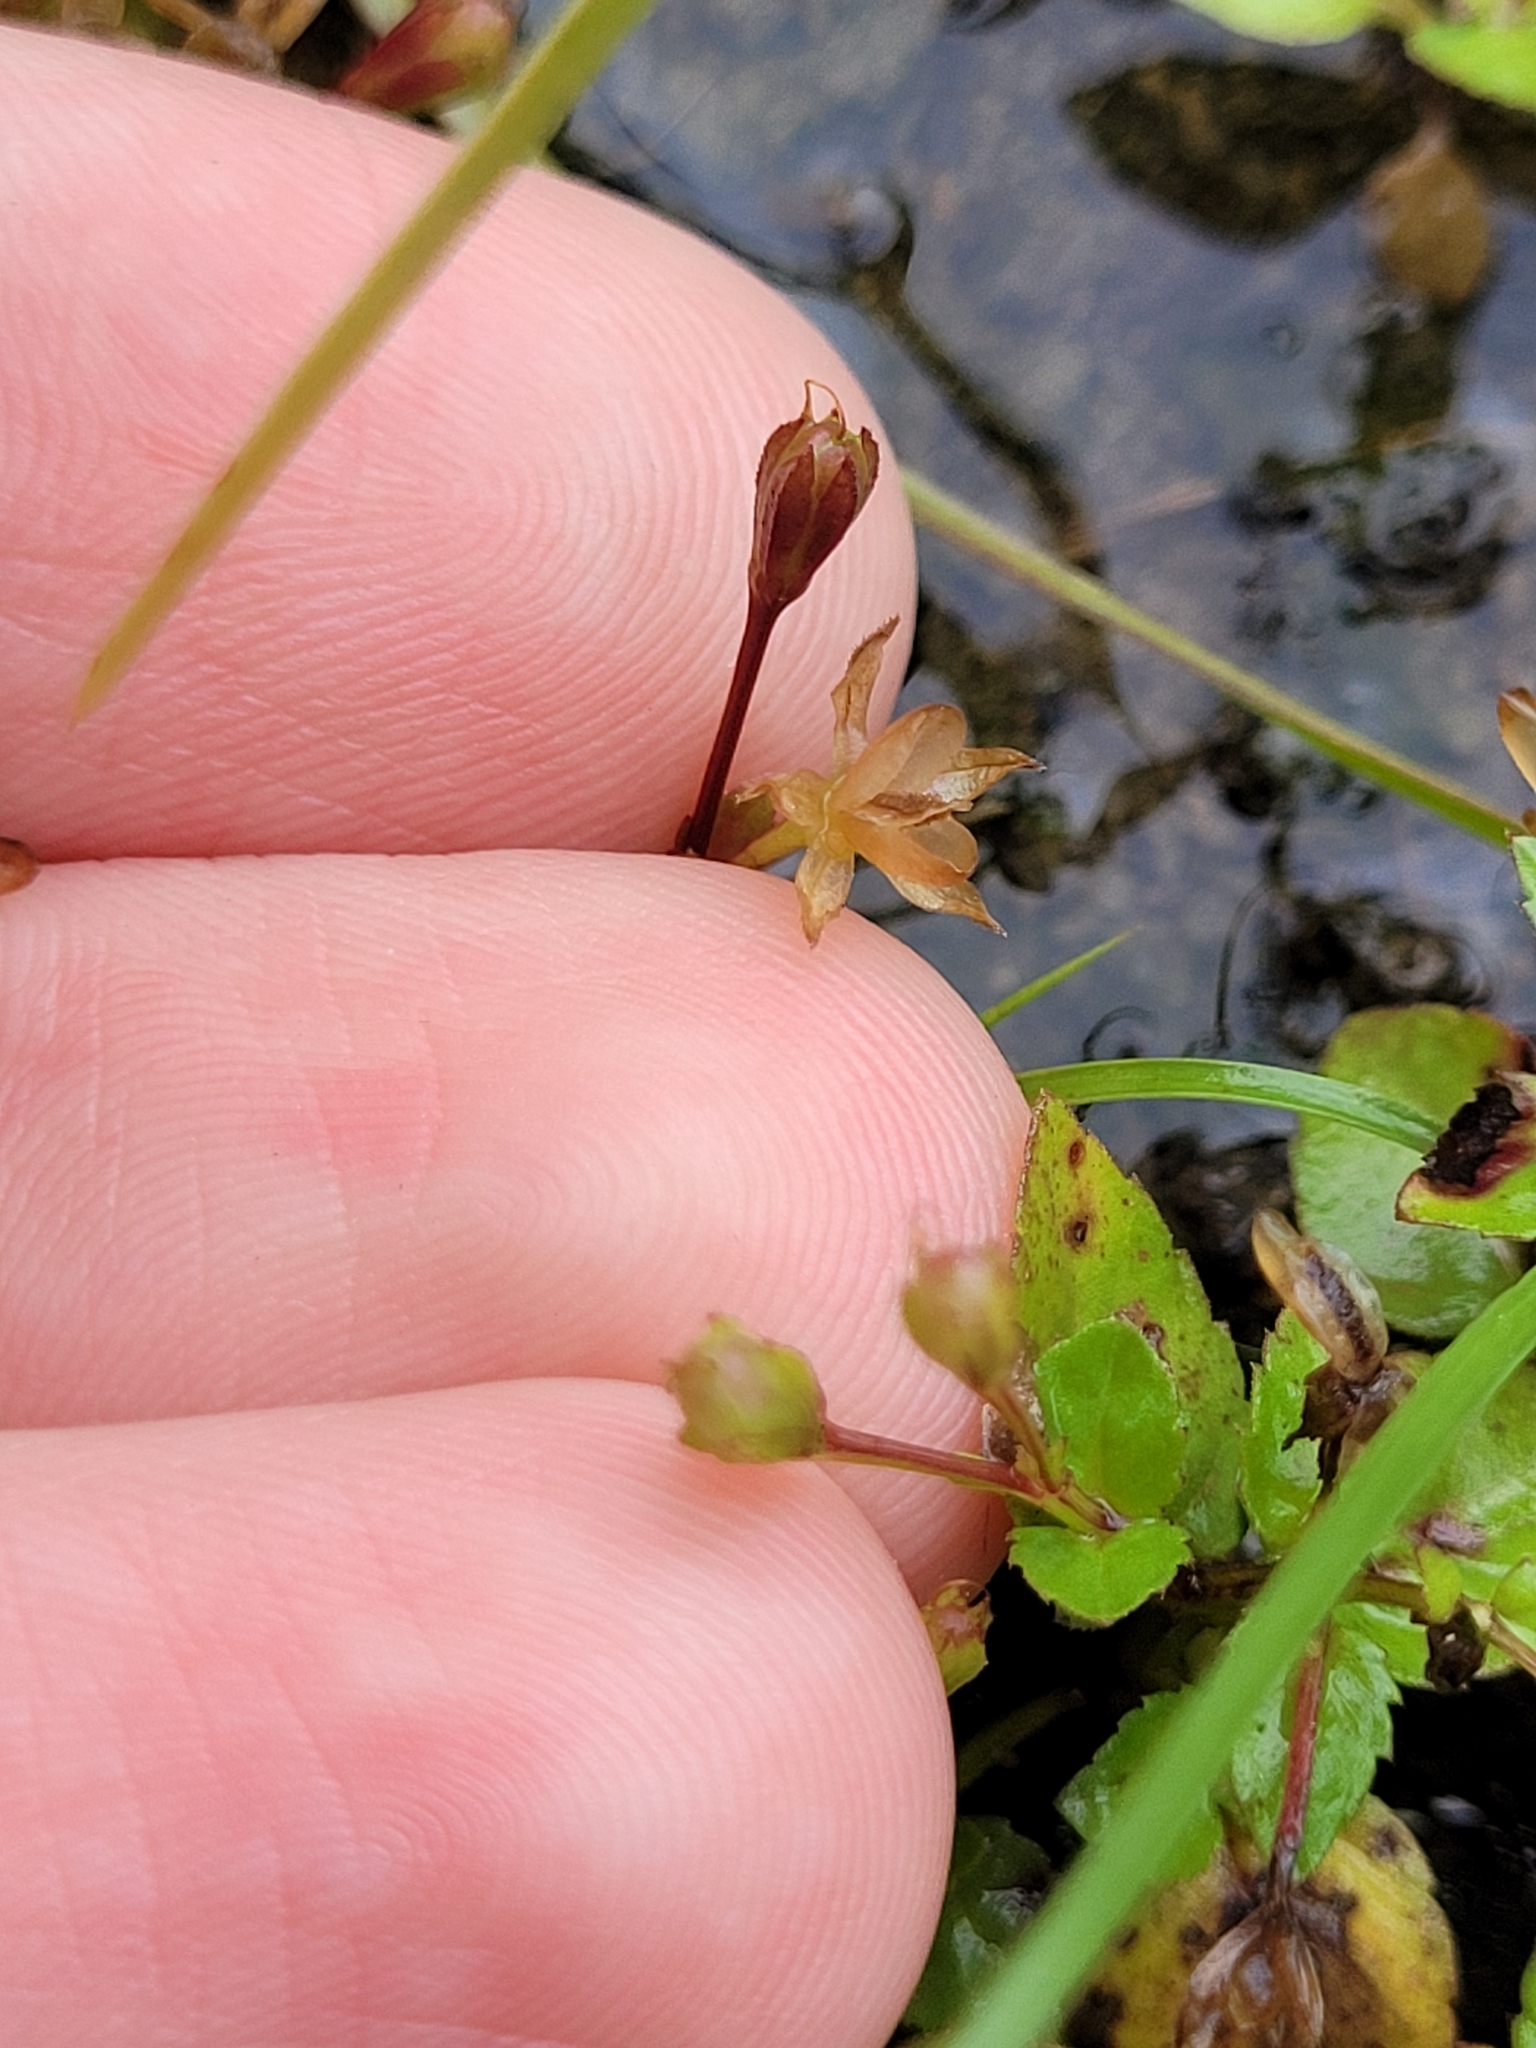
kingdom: Plantae
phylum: Tracheophyta
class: Magnoliopsida
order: Lamiales
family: Linderniaceae
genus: Torenia
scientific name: Torenia crustacea
